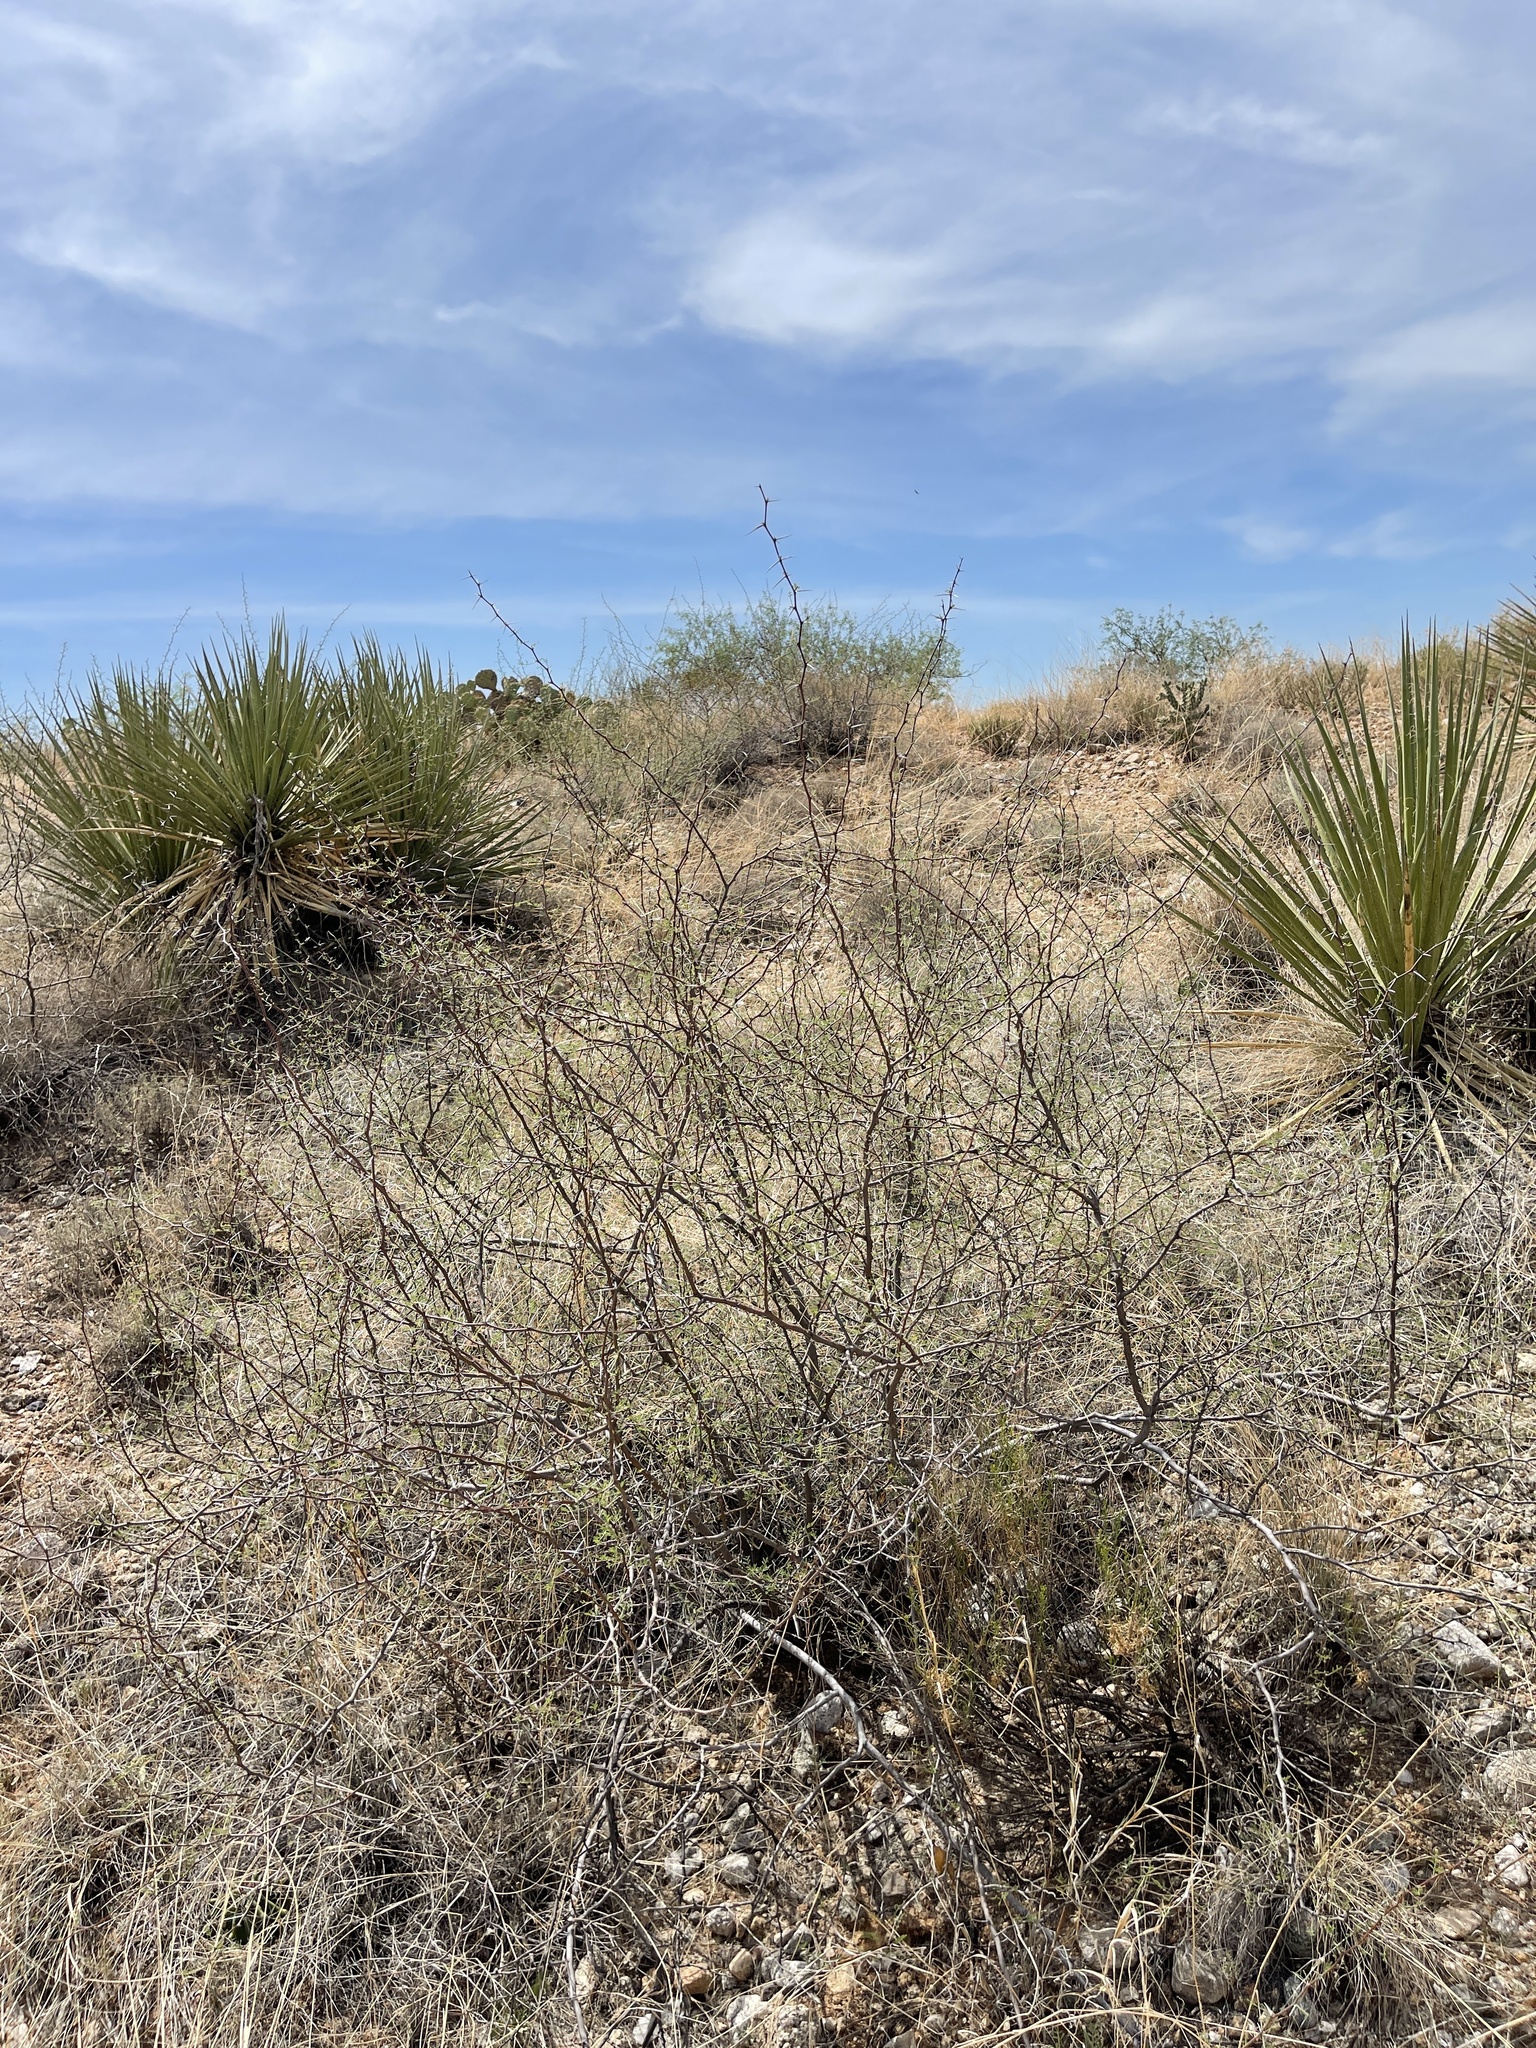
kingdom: Plantae
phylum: Tracheophyta
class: Magnoliopsida
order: Fabales
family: Fabaceae
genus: Vachellia
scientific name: Vachellia constricta
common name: Mescat acacia
